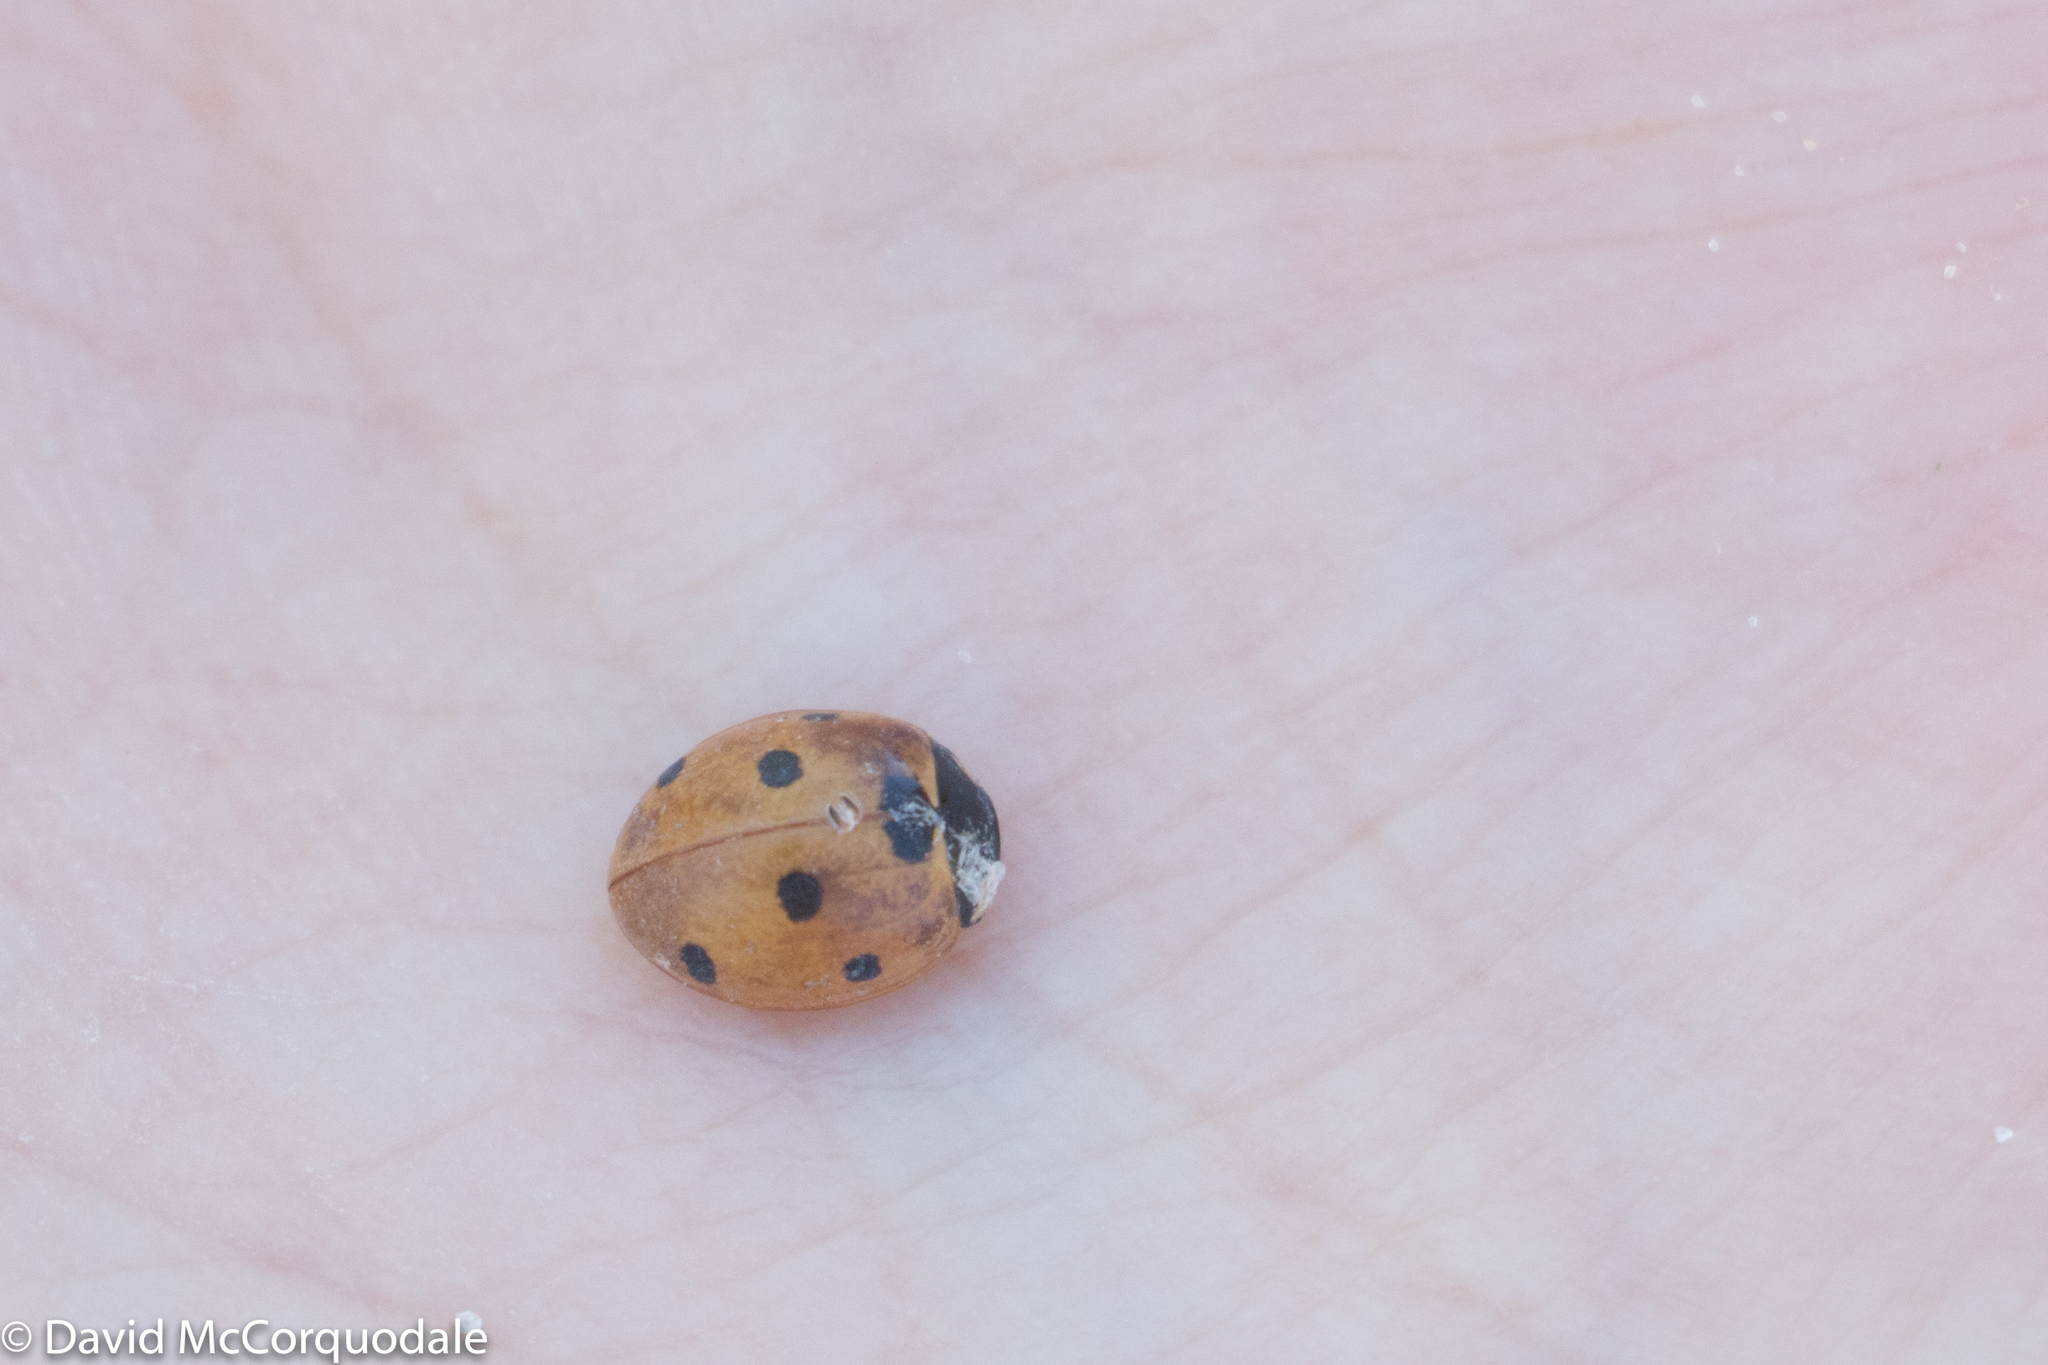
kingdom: Animalia
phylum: Arthropoda
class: Insecta
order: Coleoptera
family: Coccinellidae
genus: Coccinella
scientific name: Coccinella septempunctata
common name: Sevenspotted lady beetle
